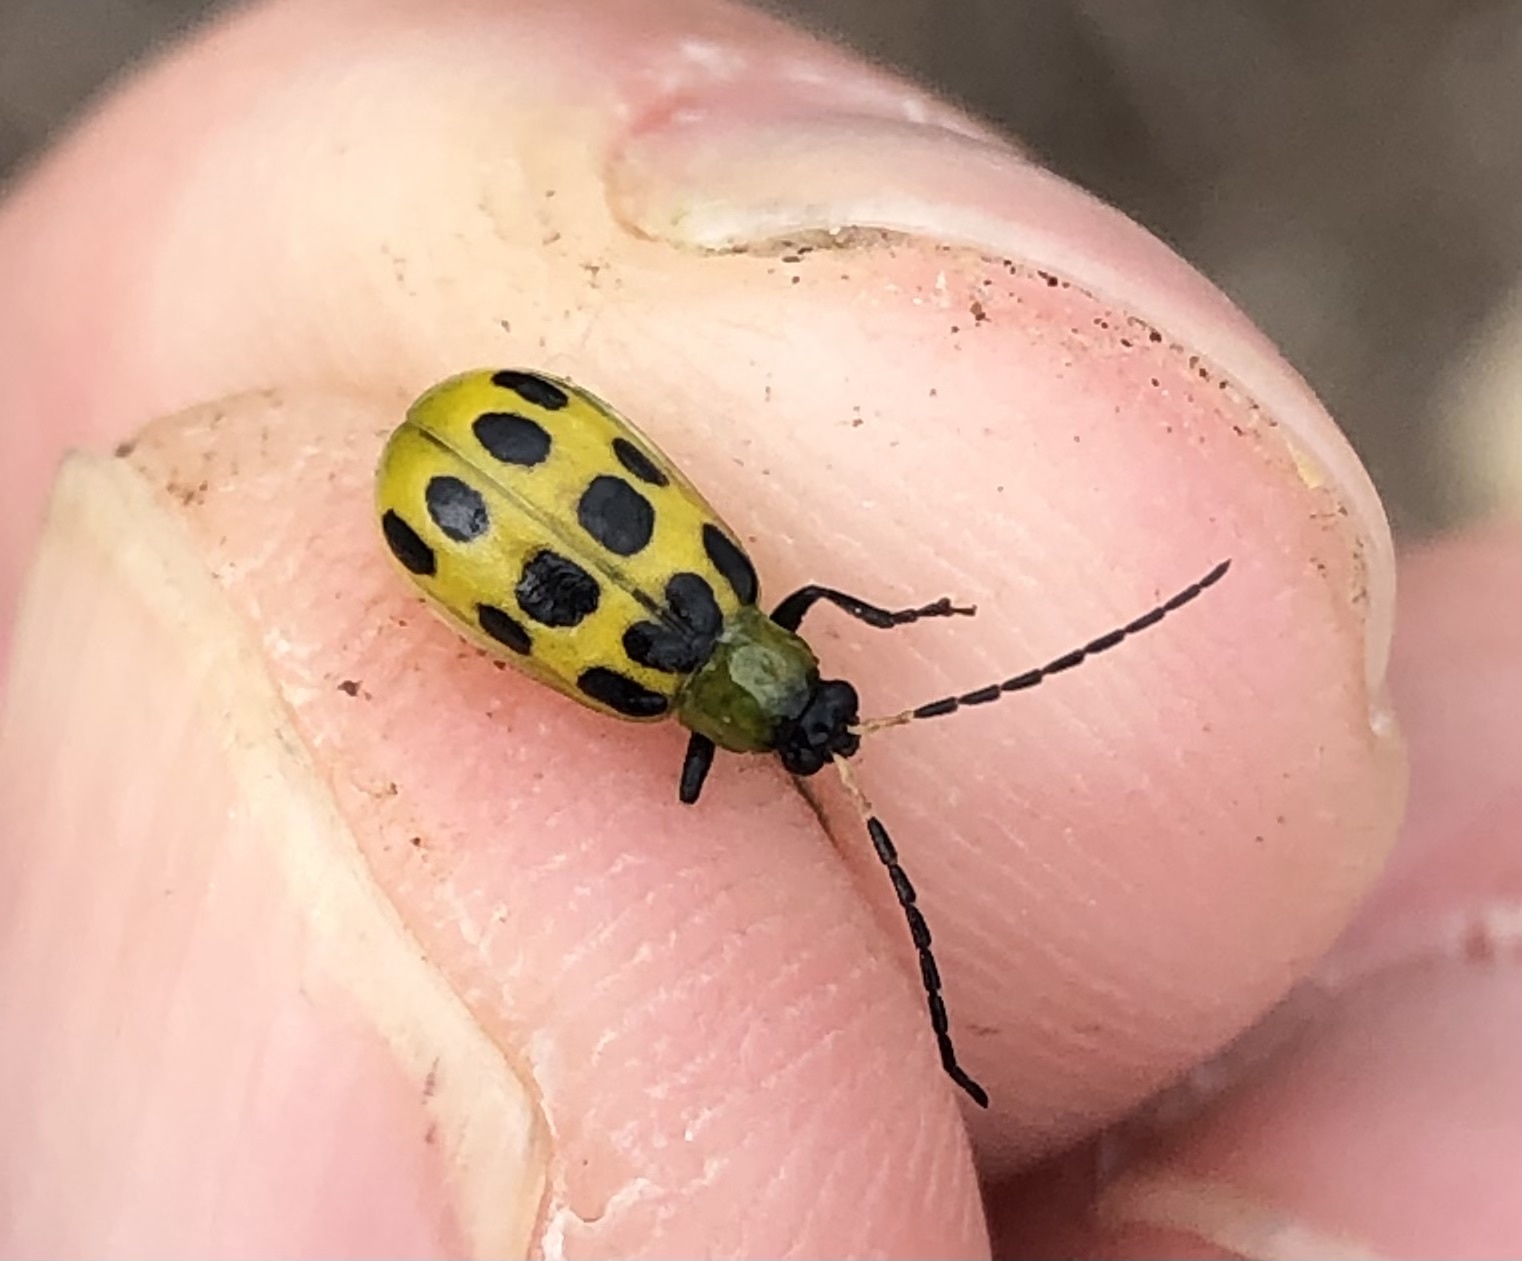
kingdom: Animalia
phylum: Arthropoda
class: Insecta
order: Coleoptera
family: Chrysomelidae
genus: Diabrotica
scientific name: Diabrotica undecimpunctata
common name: Spotted cucumber beetle
